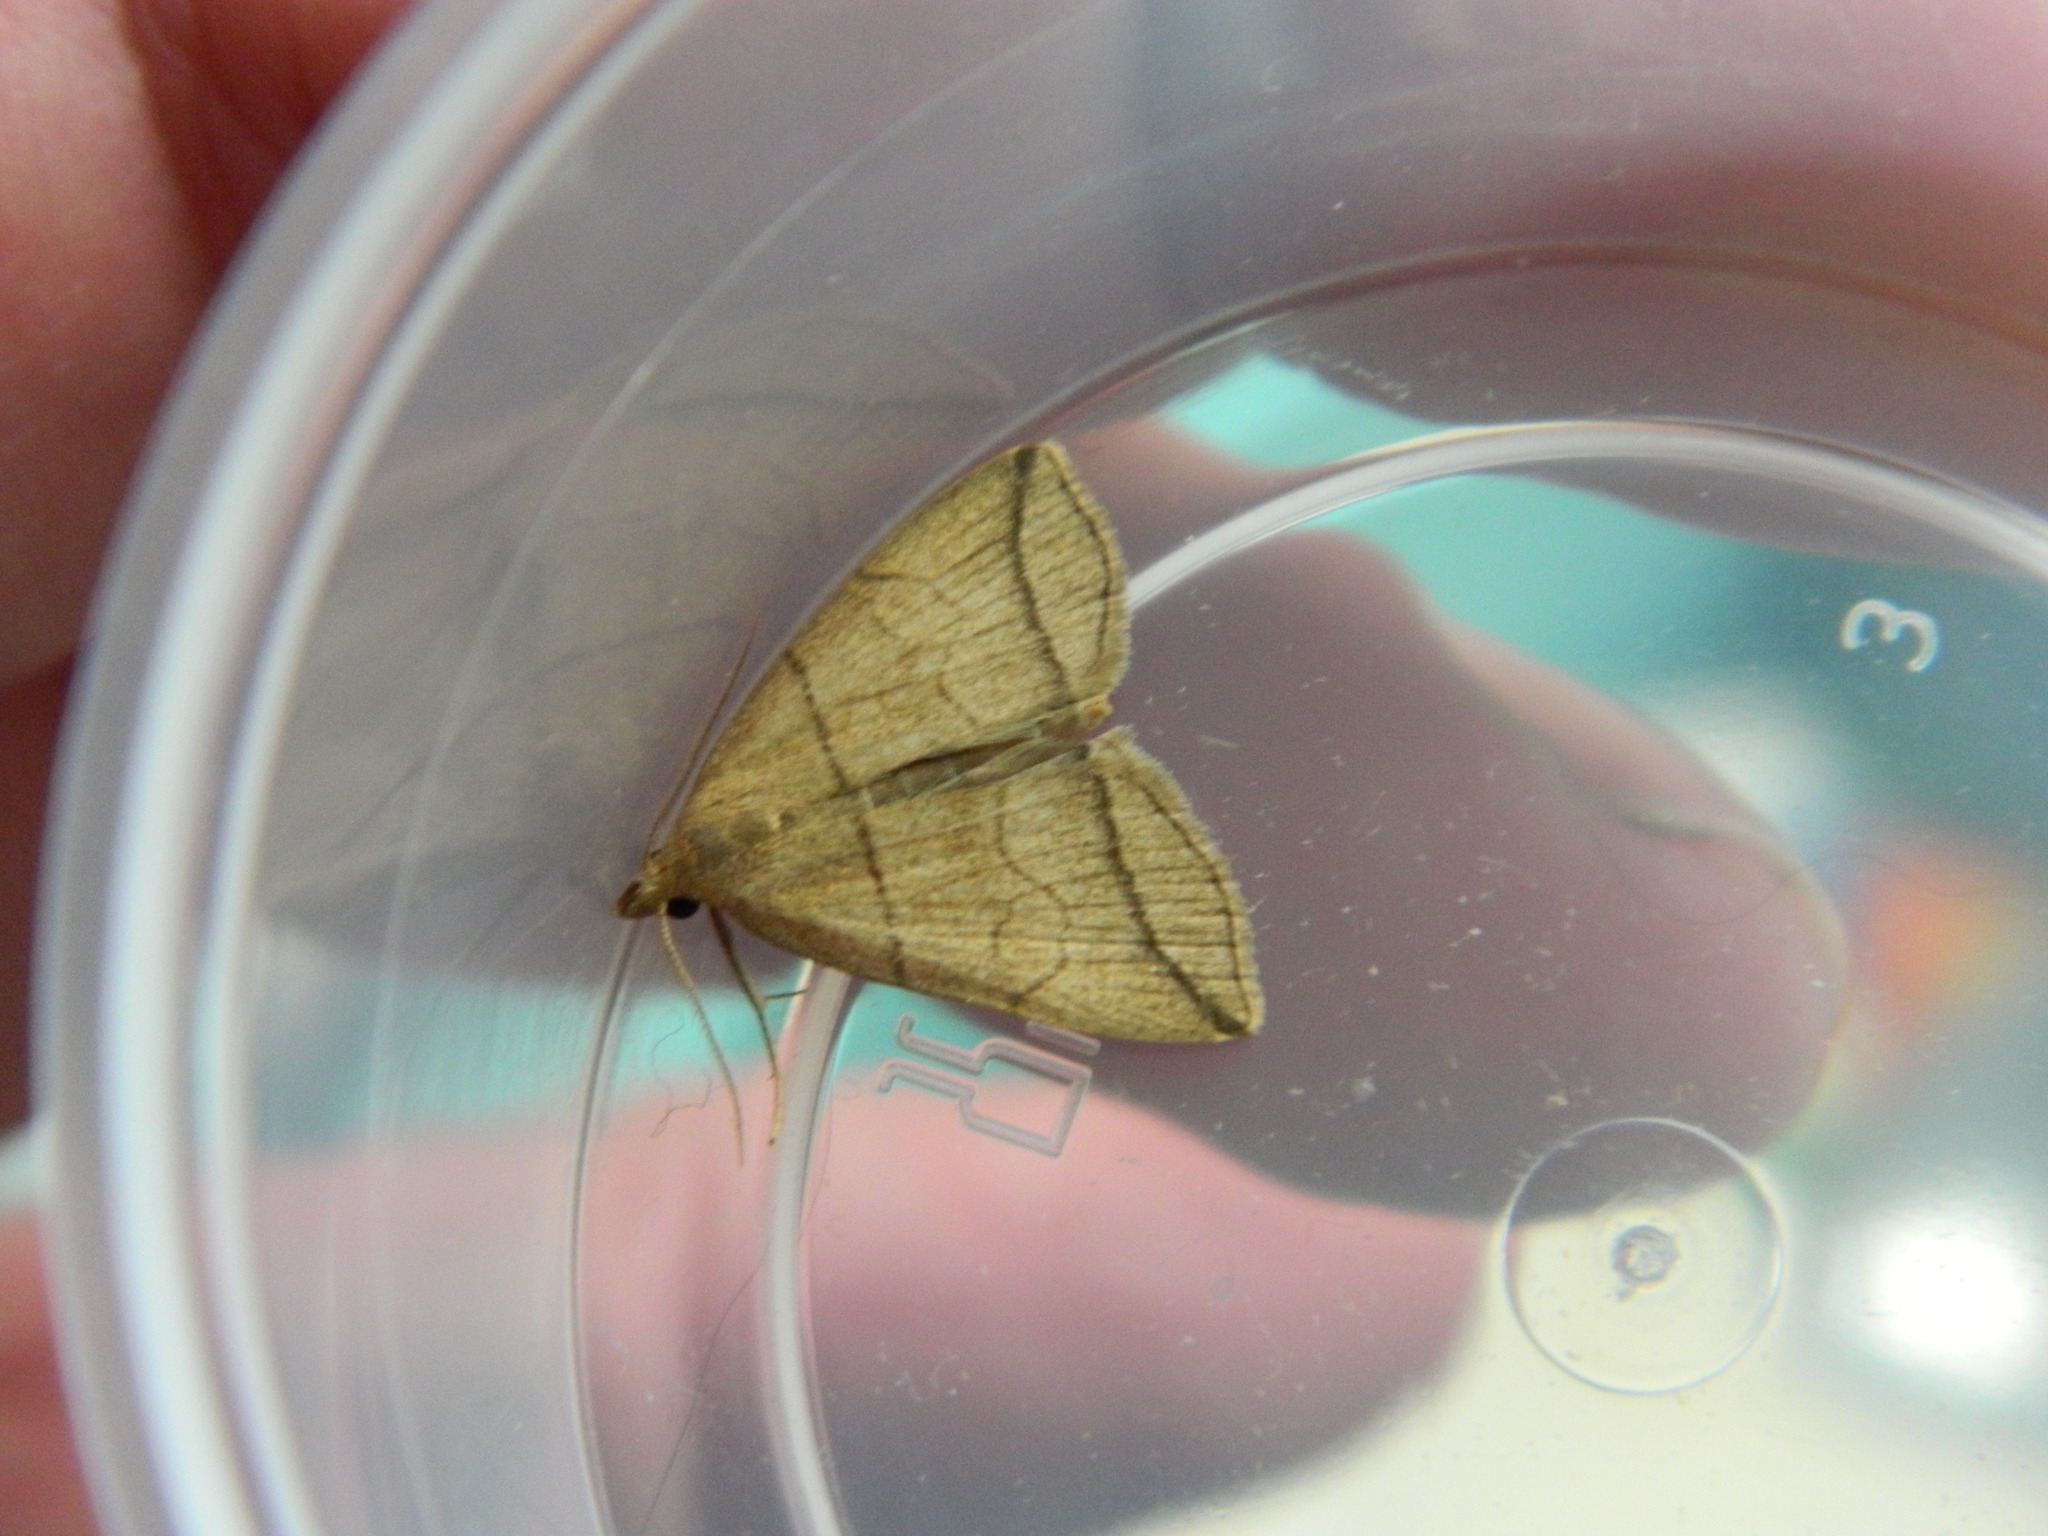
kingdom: Animalia
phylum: Arthropoda
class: Insecta
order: Lepidoptera
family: Erebidae
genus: Herminia
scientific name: Herminia grisealis
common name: Small fan-foot
